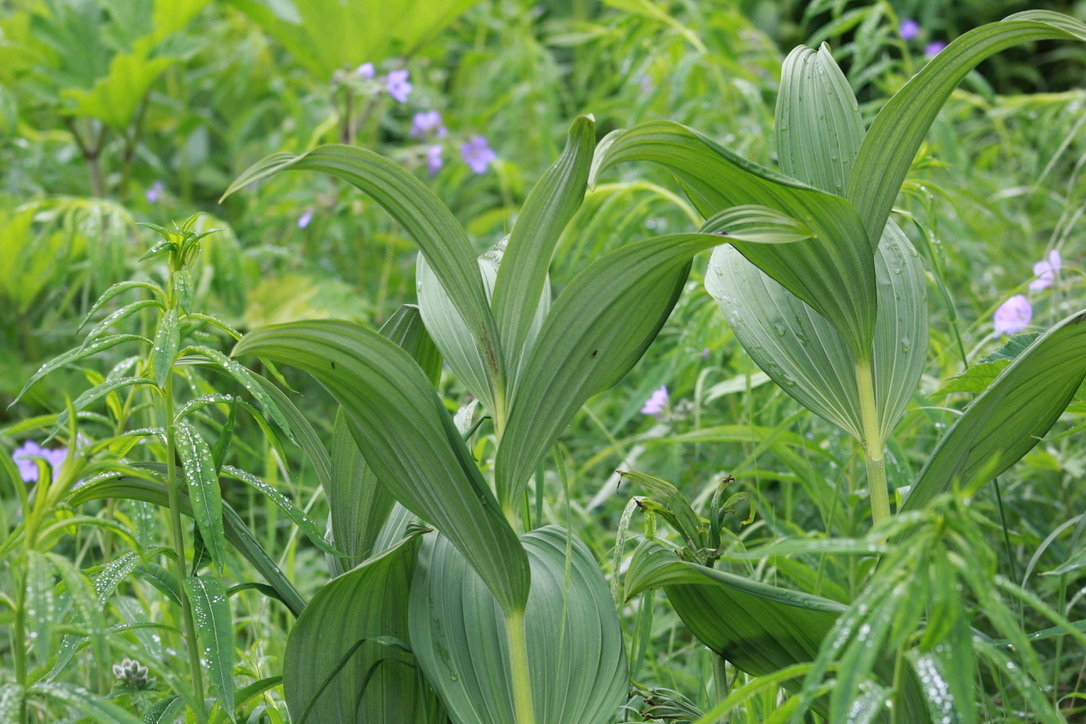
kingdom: Plantae
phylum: Tracheophyta
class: Liliopsida
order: Liliales
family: Melanthiaceae
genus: Veratrum
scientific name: Veratrum viride
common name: American false hellebore
